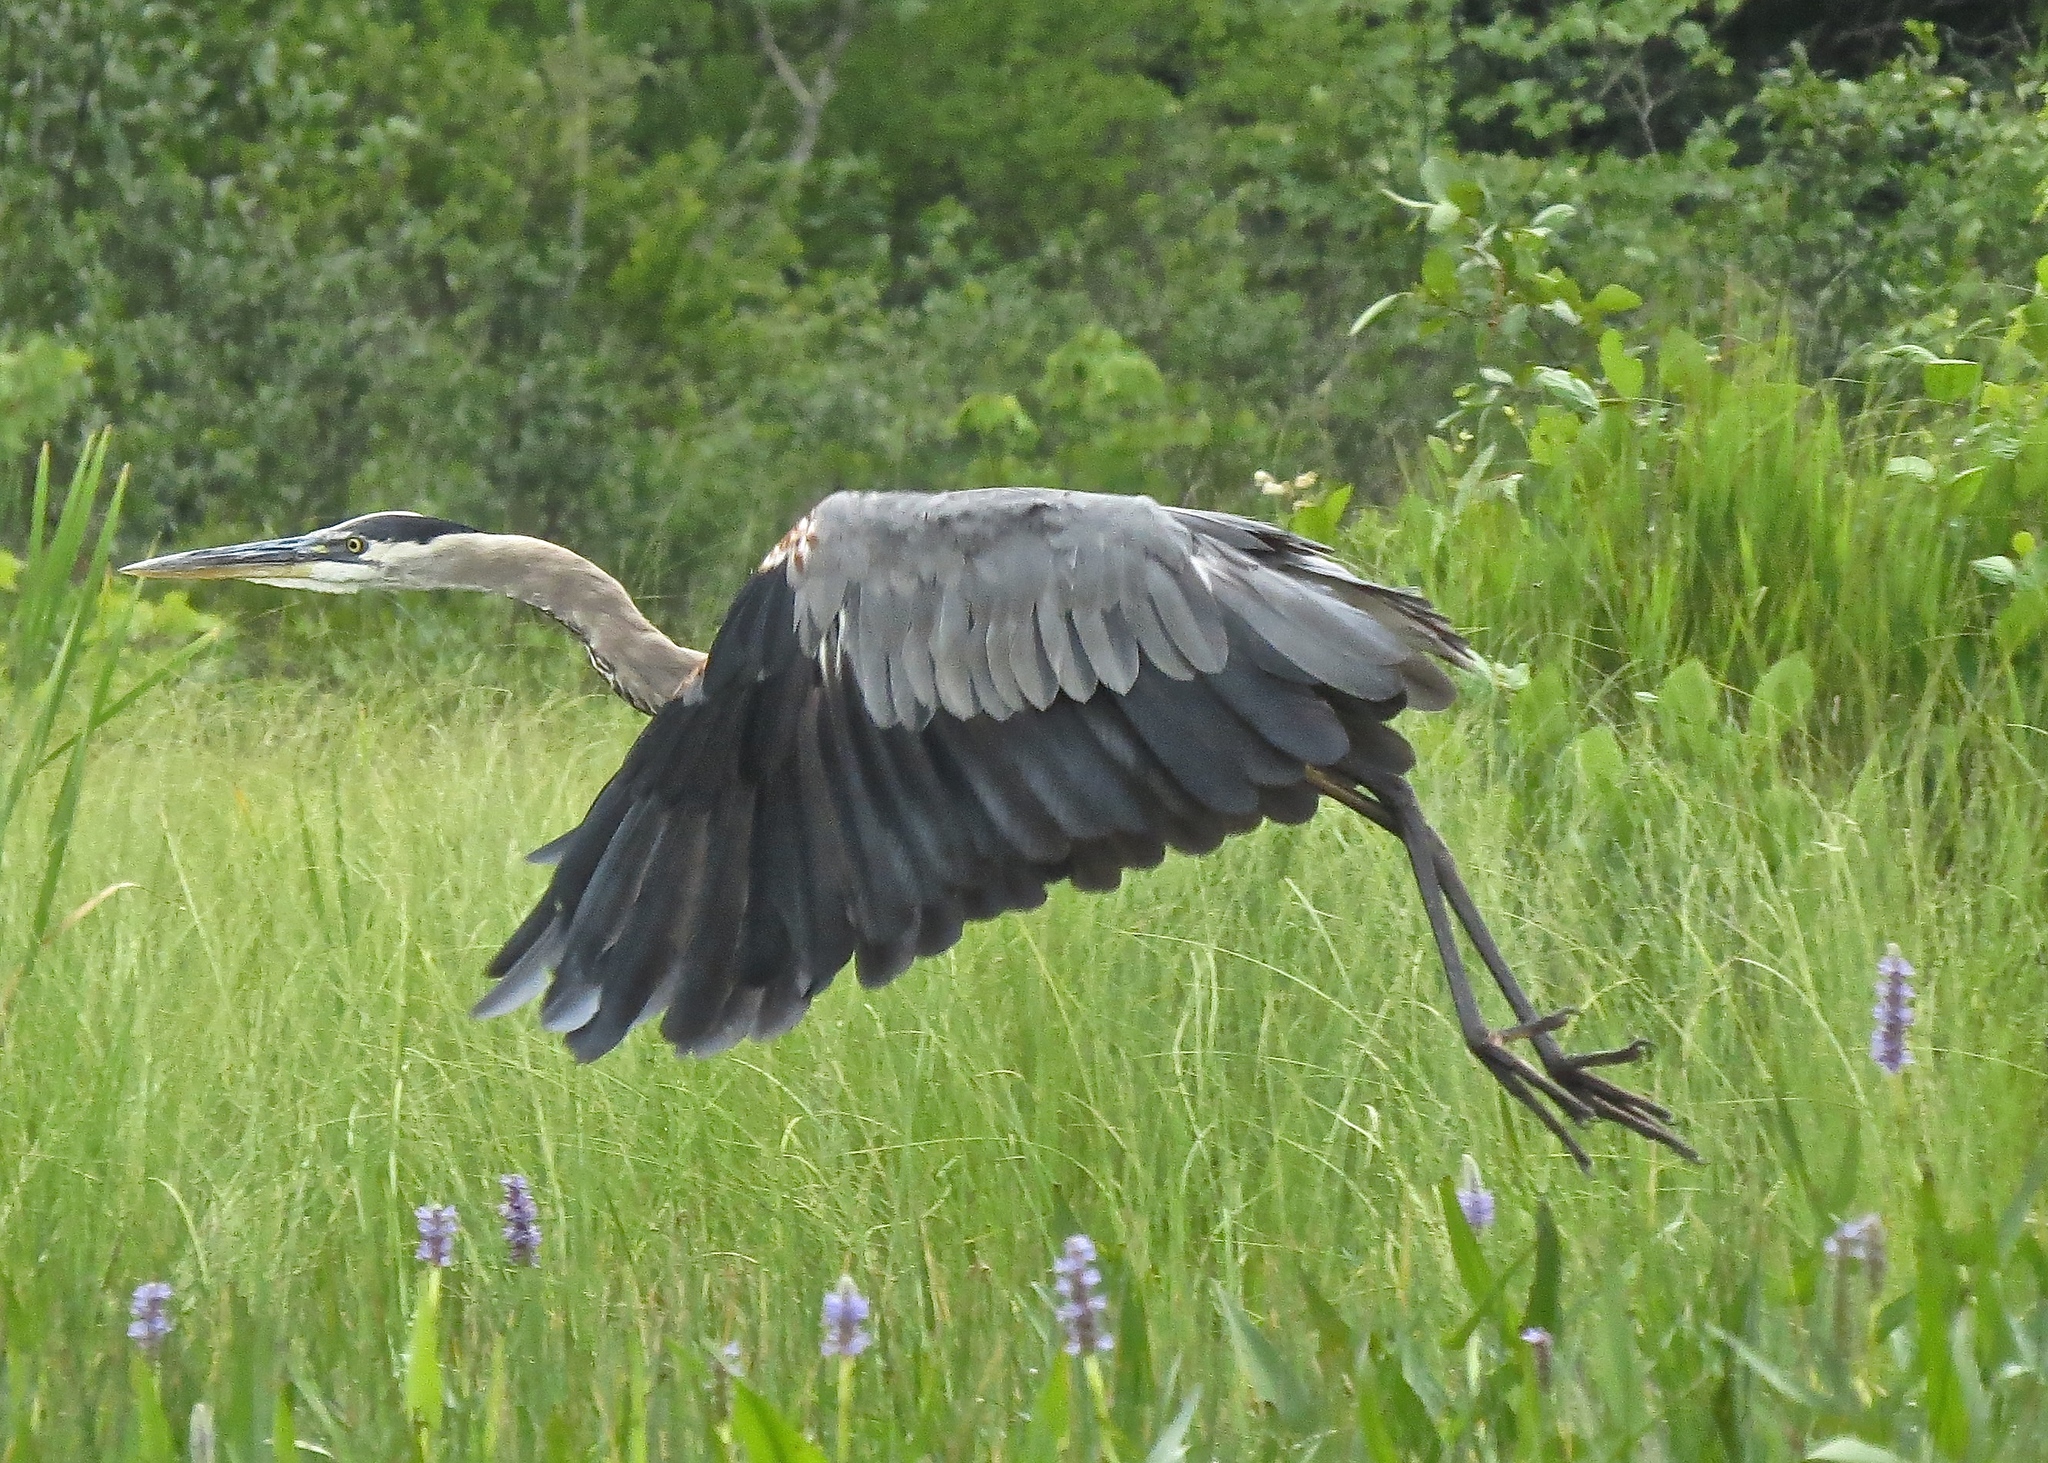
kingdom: Animalia
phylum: Chordata
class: Aves
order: Pelecaniformes
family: Ardeidae
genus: Ardea
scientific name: Ardea herodias
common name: Great blue heron
